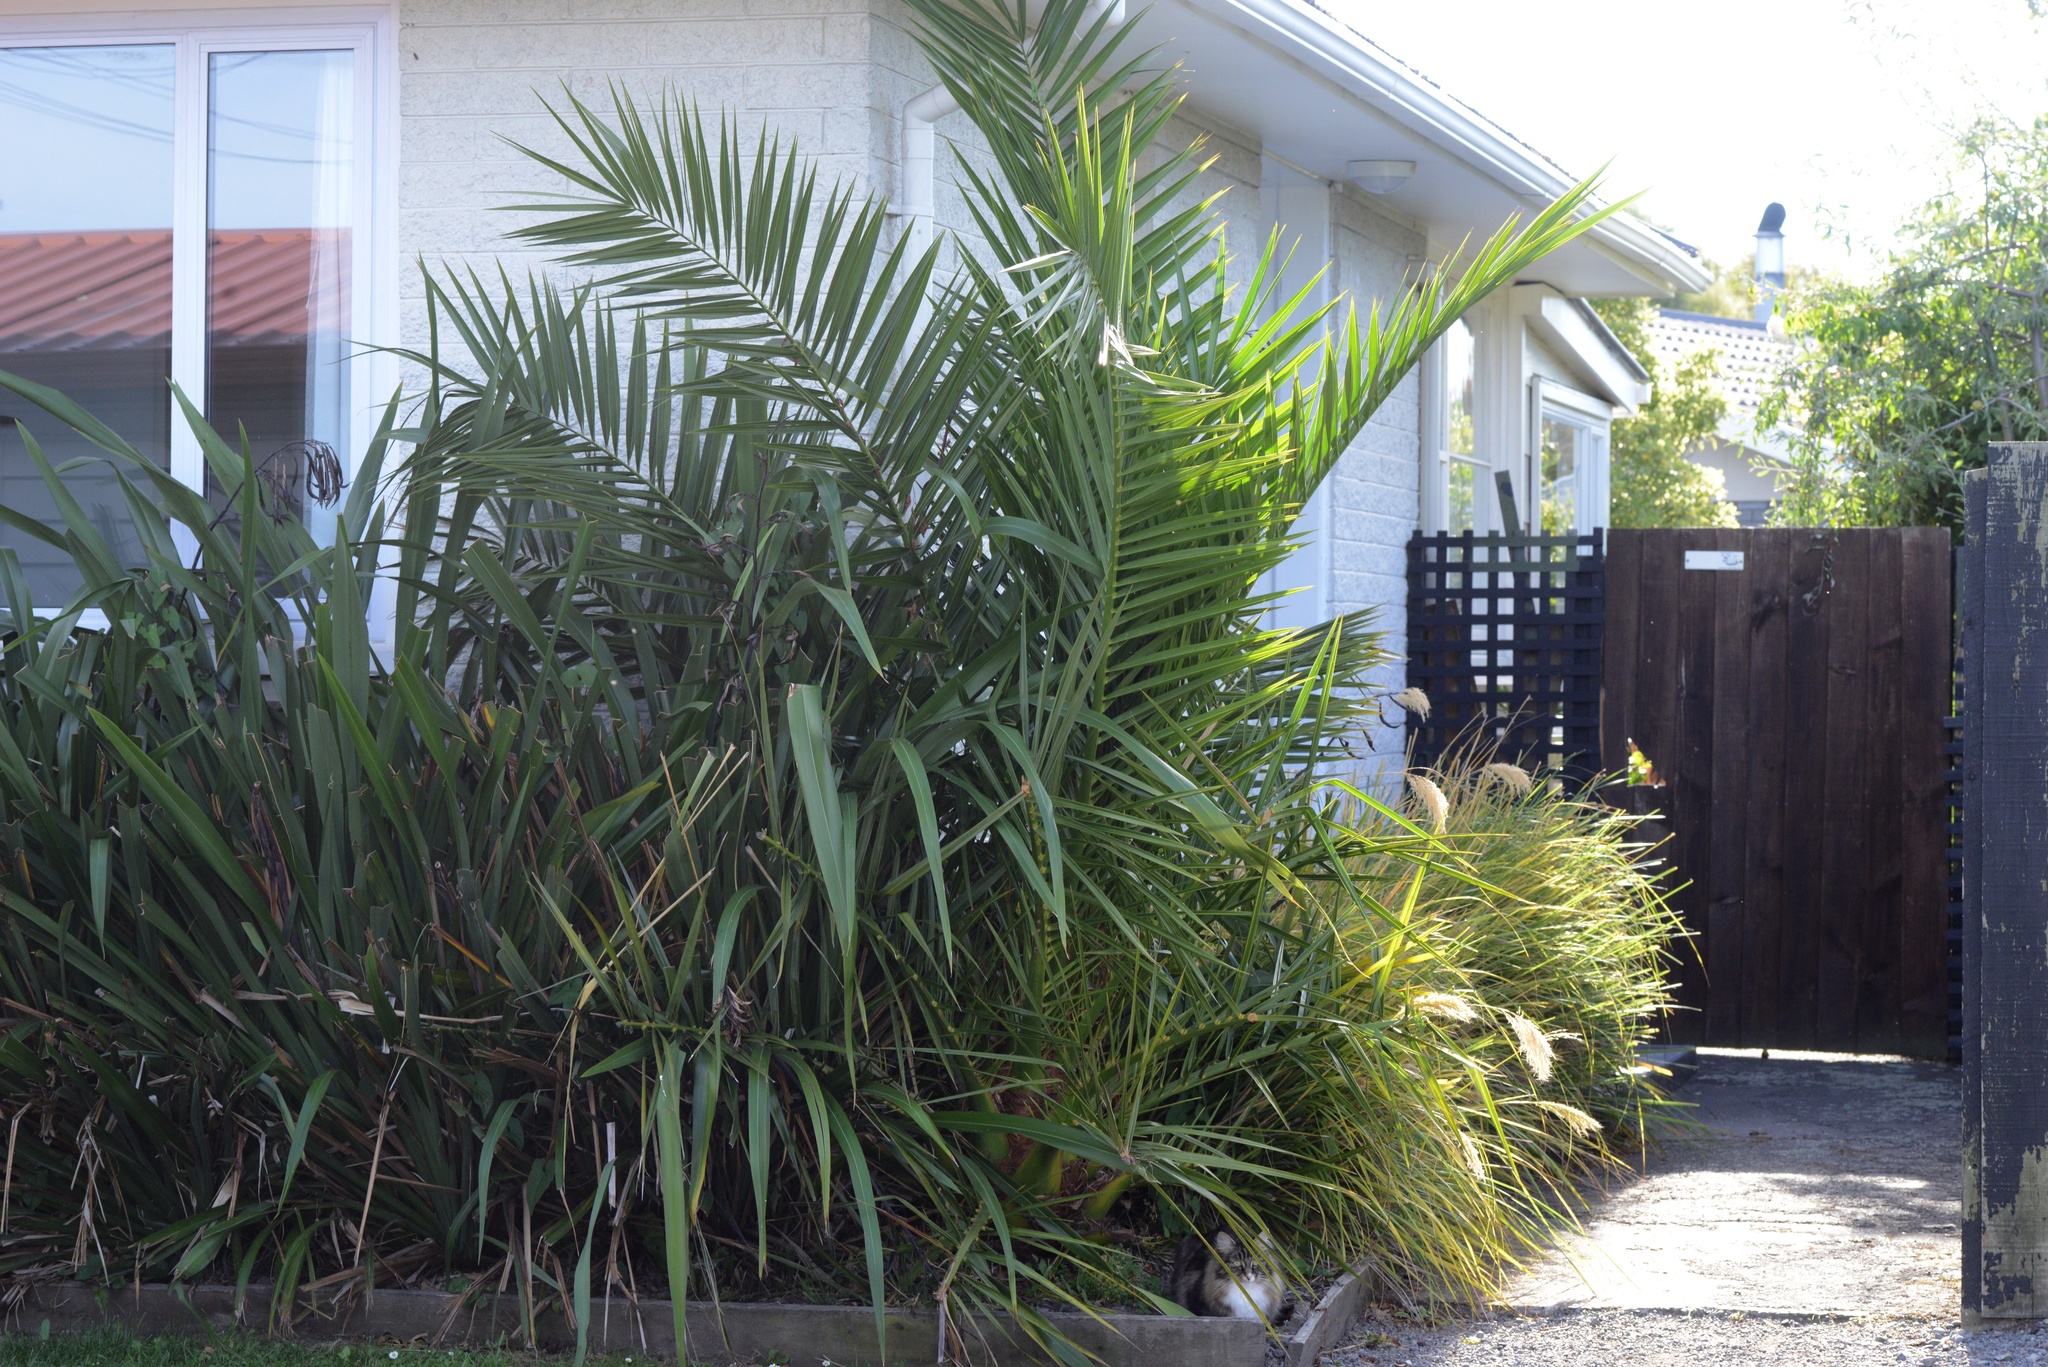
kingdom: Plantae
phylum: Tracheophyta
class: Liliopsida
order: Arecales
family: Arecaceae
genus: Phoenix
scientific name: Phoenix canariensis
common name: Canary island date palm
